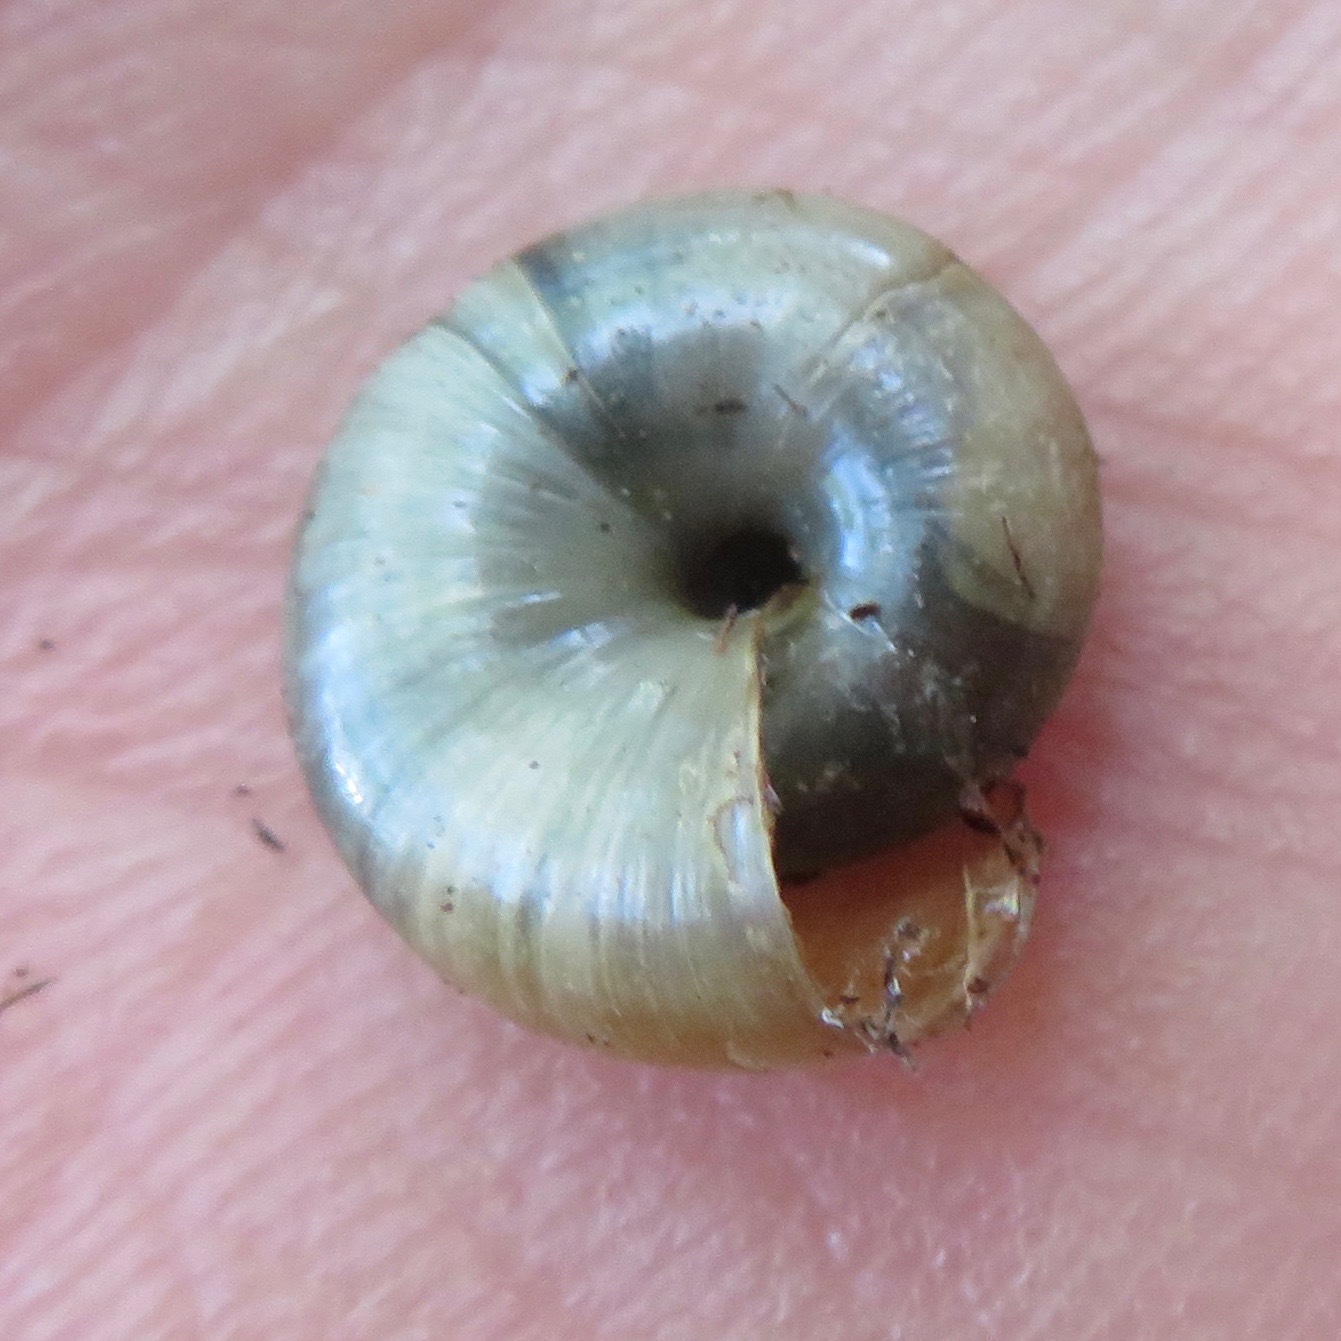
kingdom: Animalia
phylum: Mollusca
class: Gastropoda
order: Stylommatophora
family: Oxychilidae
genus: Oxychilus
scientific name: Oxychilus
